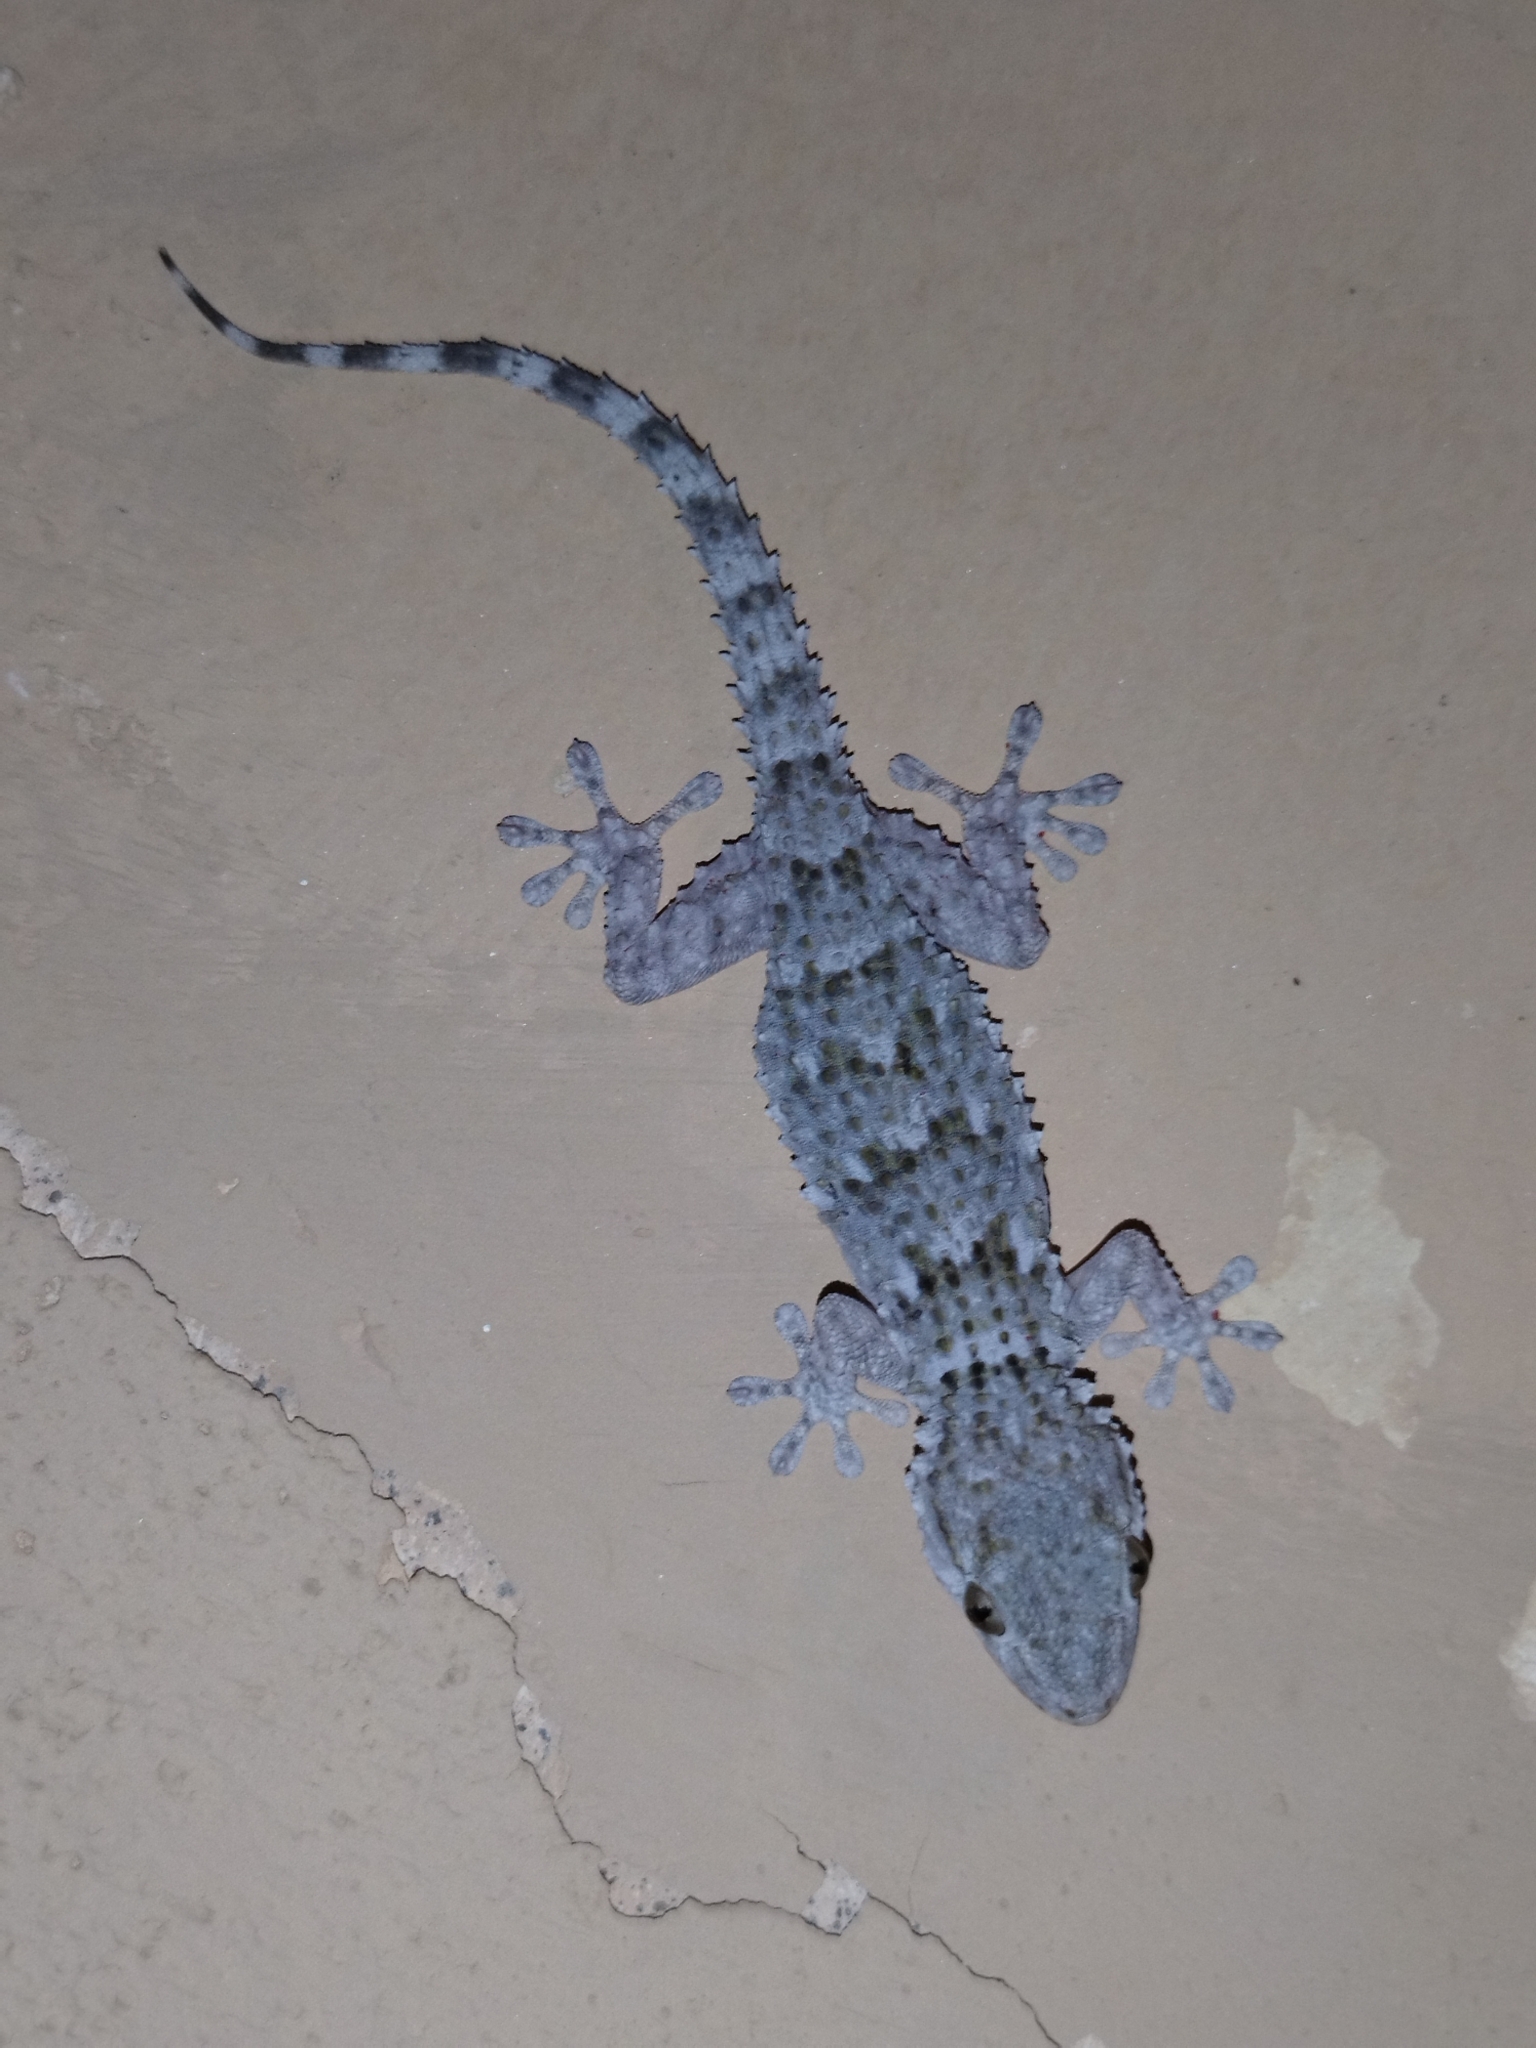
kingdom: Animalia
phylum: Chordata
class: Squamata
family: Phyllodactylidae
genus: Tarentola
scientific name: Tarentola mauritanica
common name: Moorish gecko
